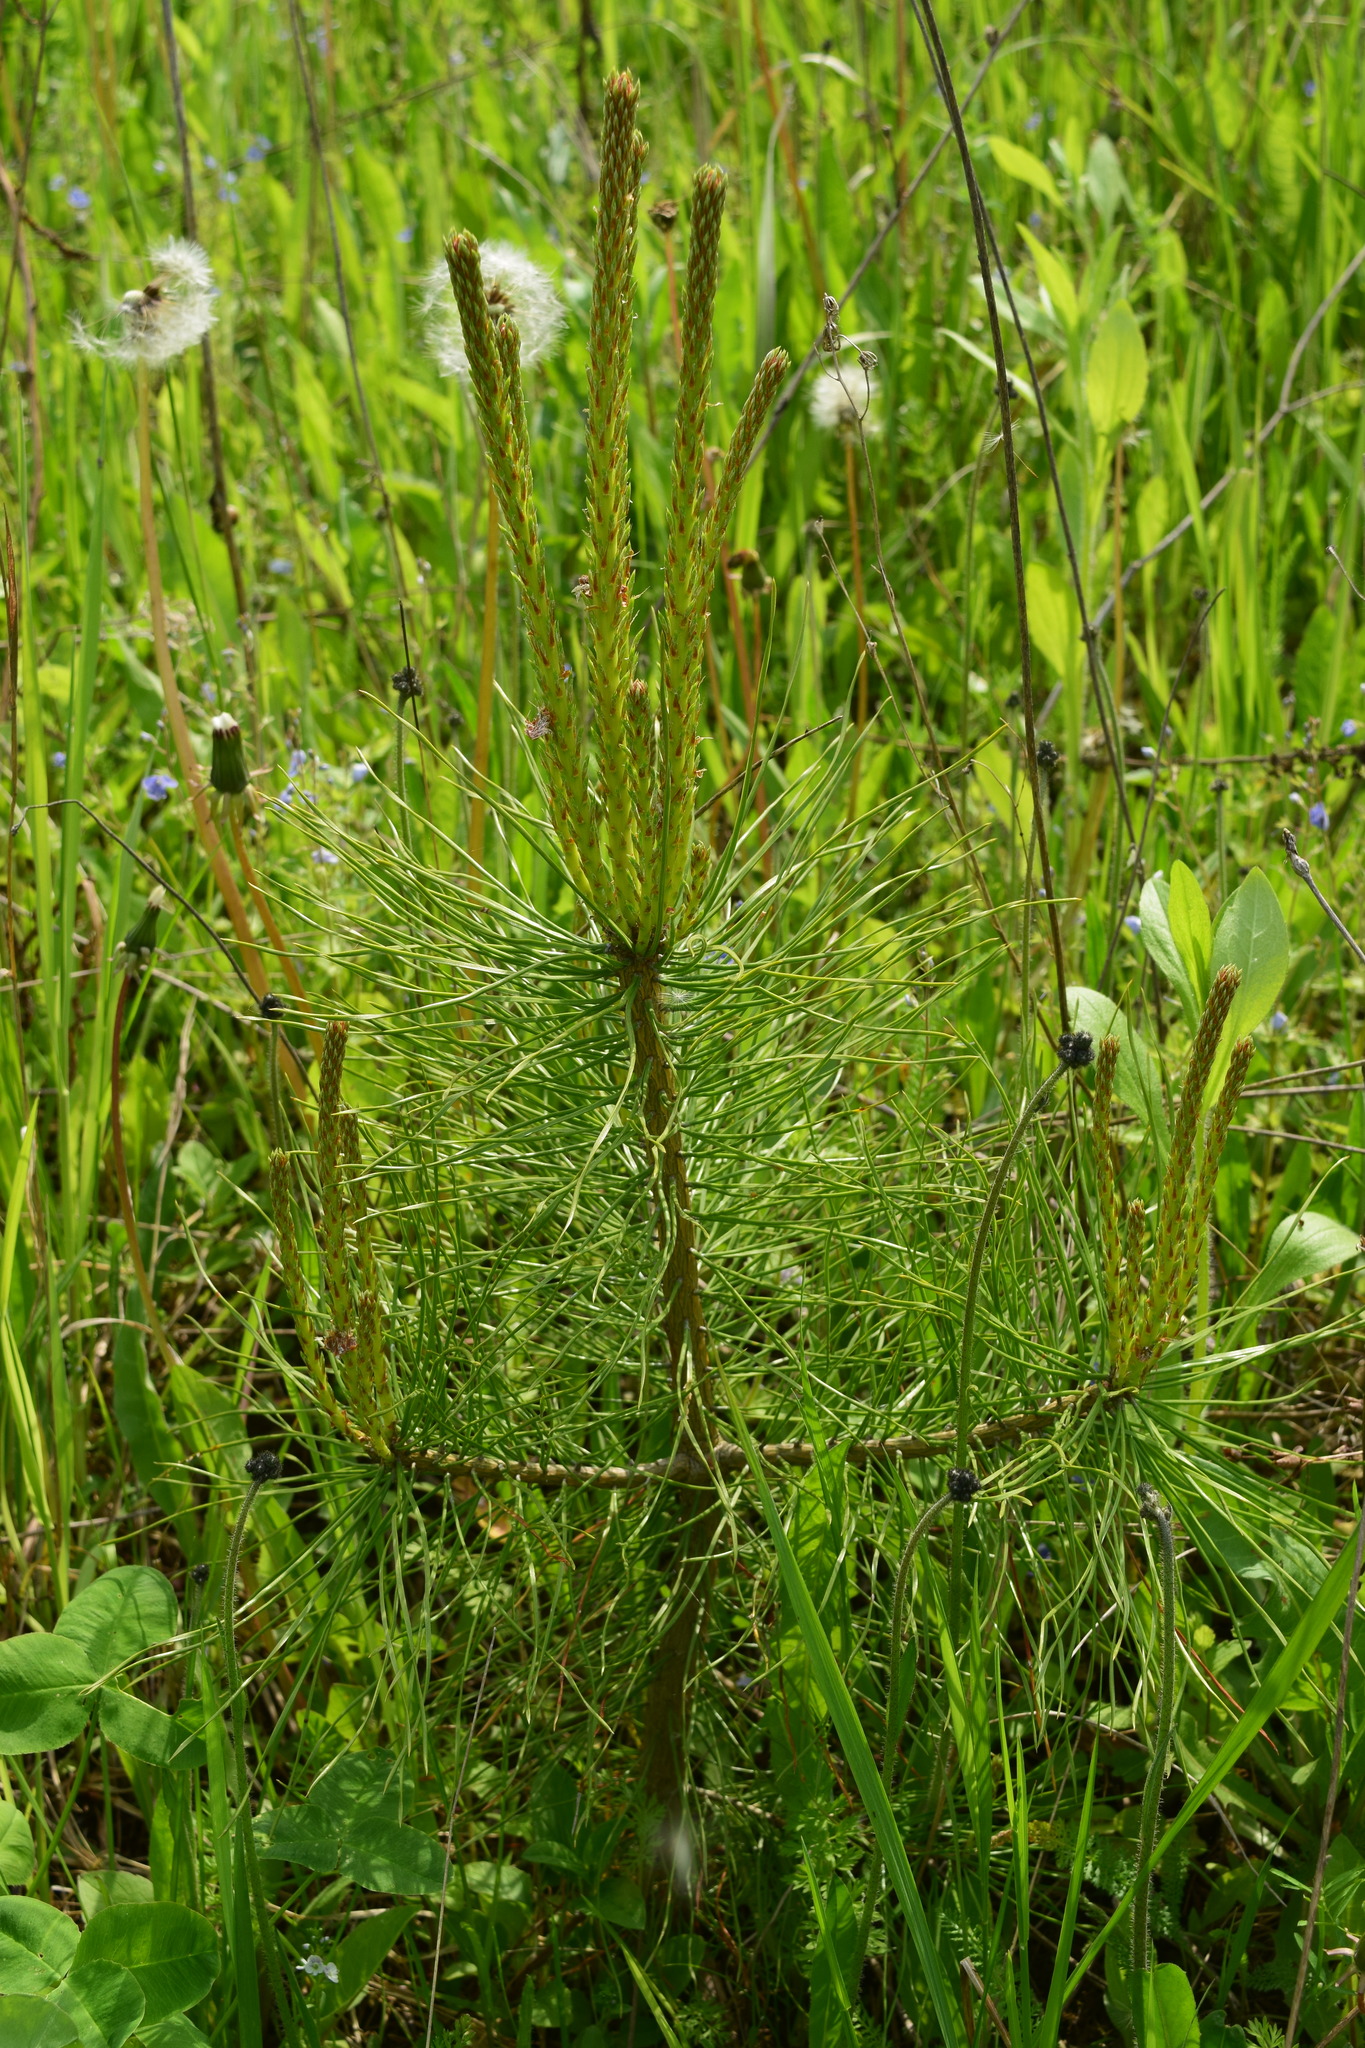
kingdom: Plantae
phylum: Tracheophyta
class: Pinopsida
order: Pinales
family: Pinaceae
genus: Pinus
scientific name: Pinus sylvestris
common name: Scots pine
